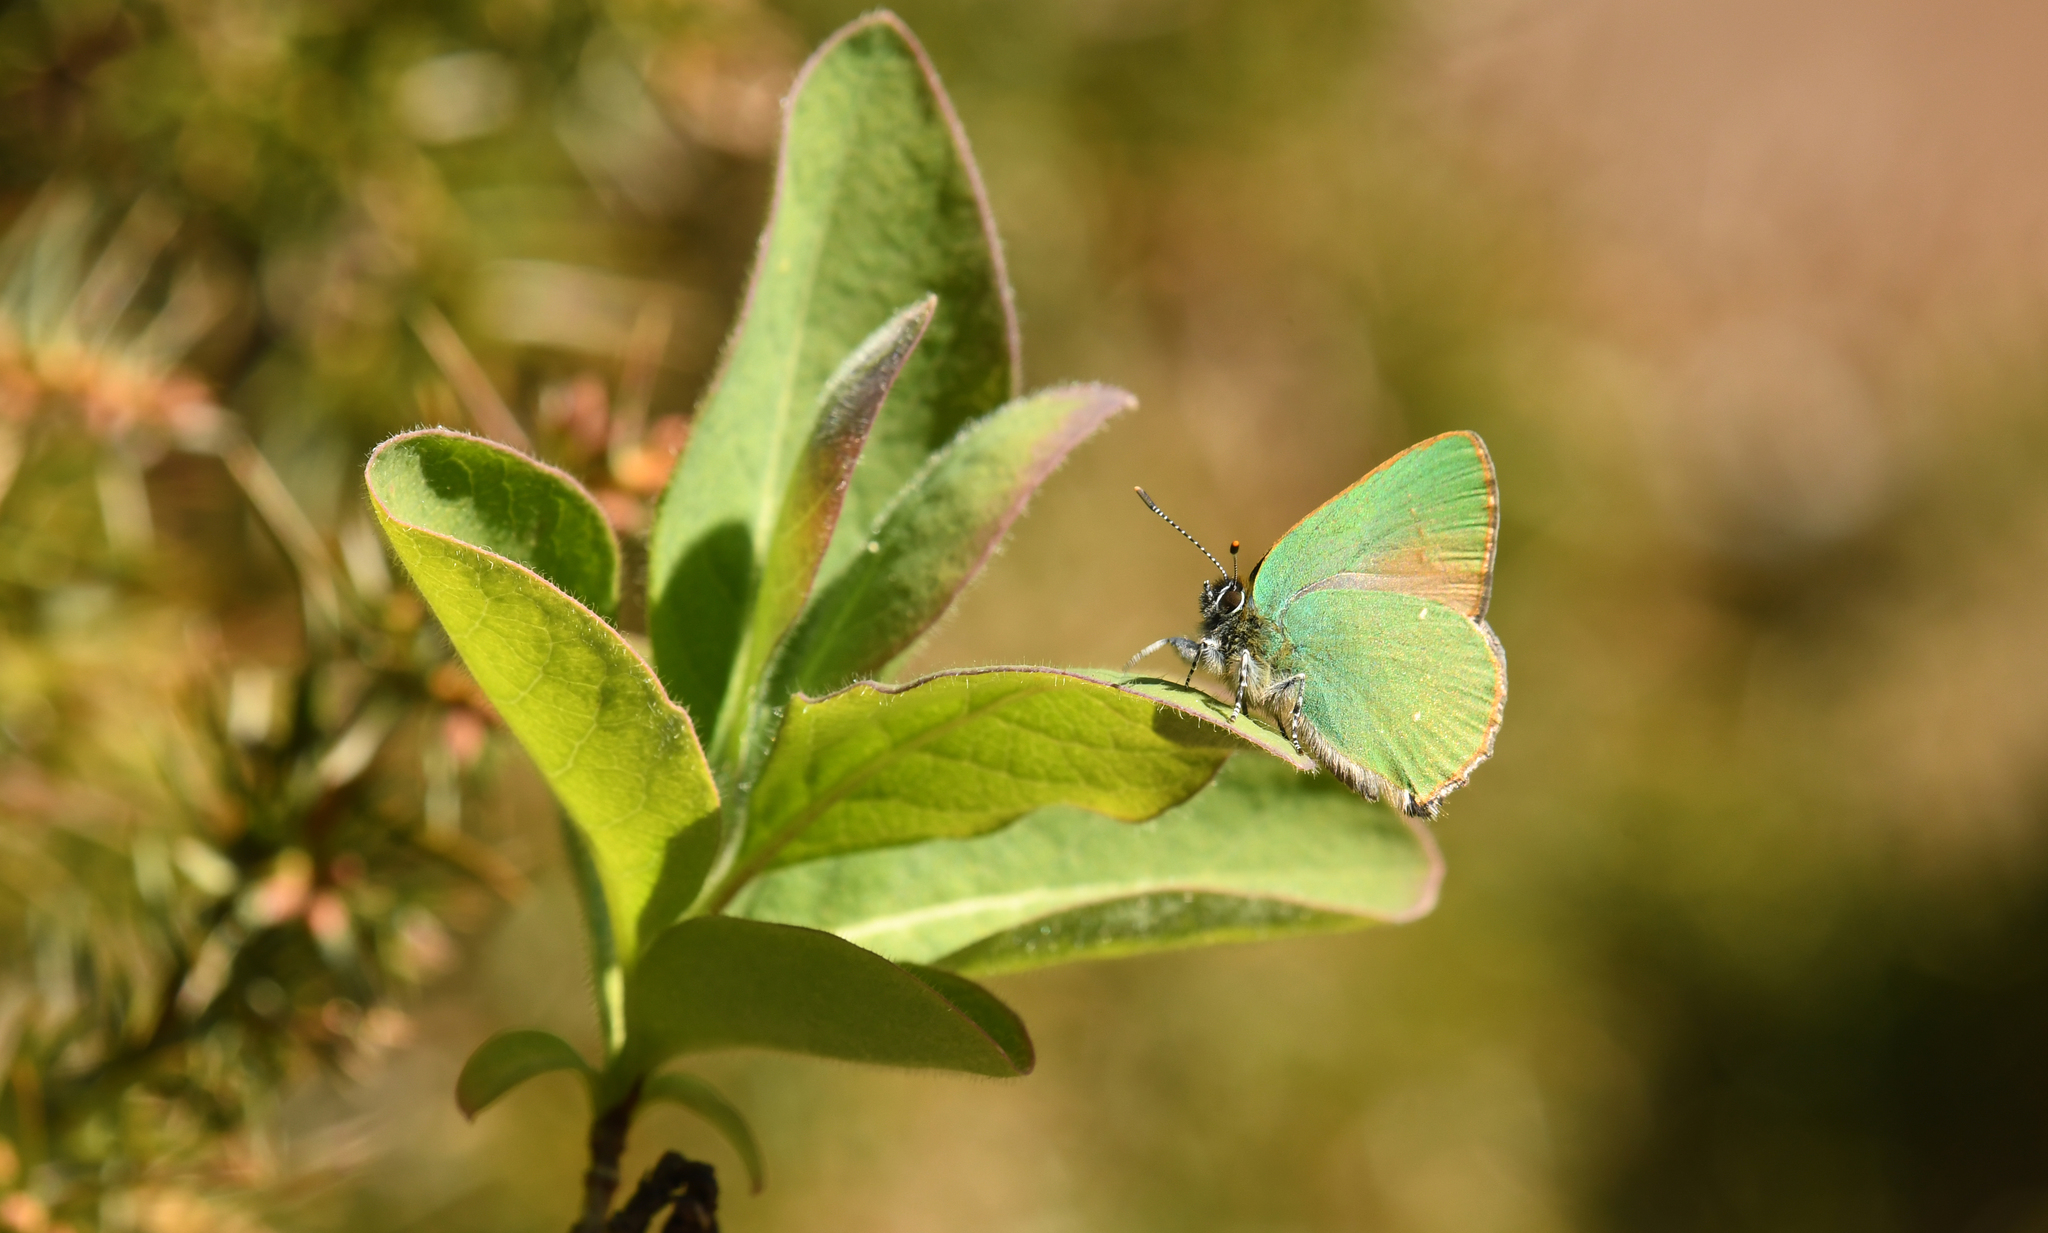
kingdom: Animalia
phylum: Arthropoda
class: Insecta
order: Lepidoptera
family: Lycaenidae
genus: Callophrys
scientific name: Callophrys rubi
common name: Green hairstreak
